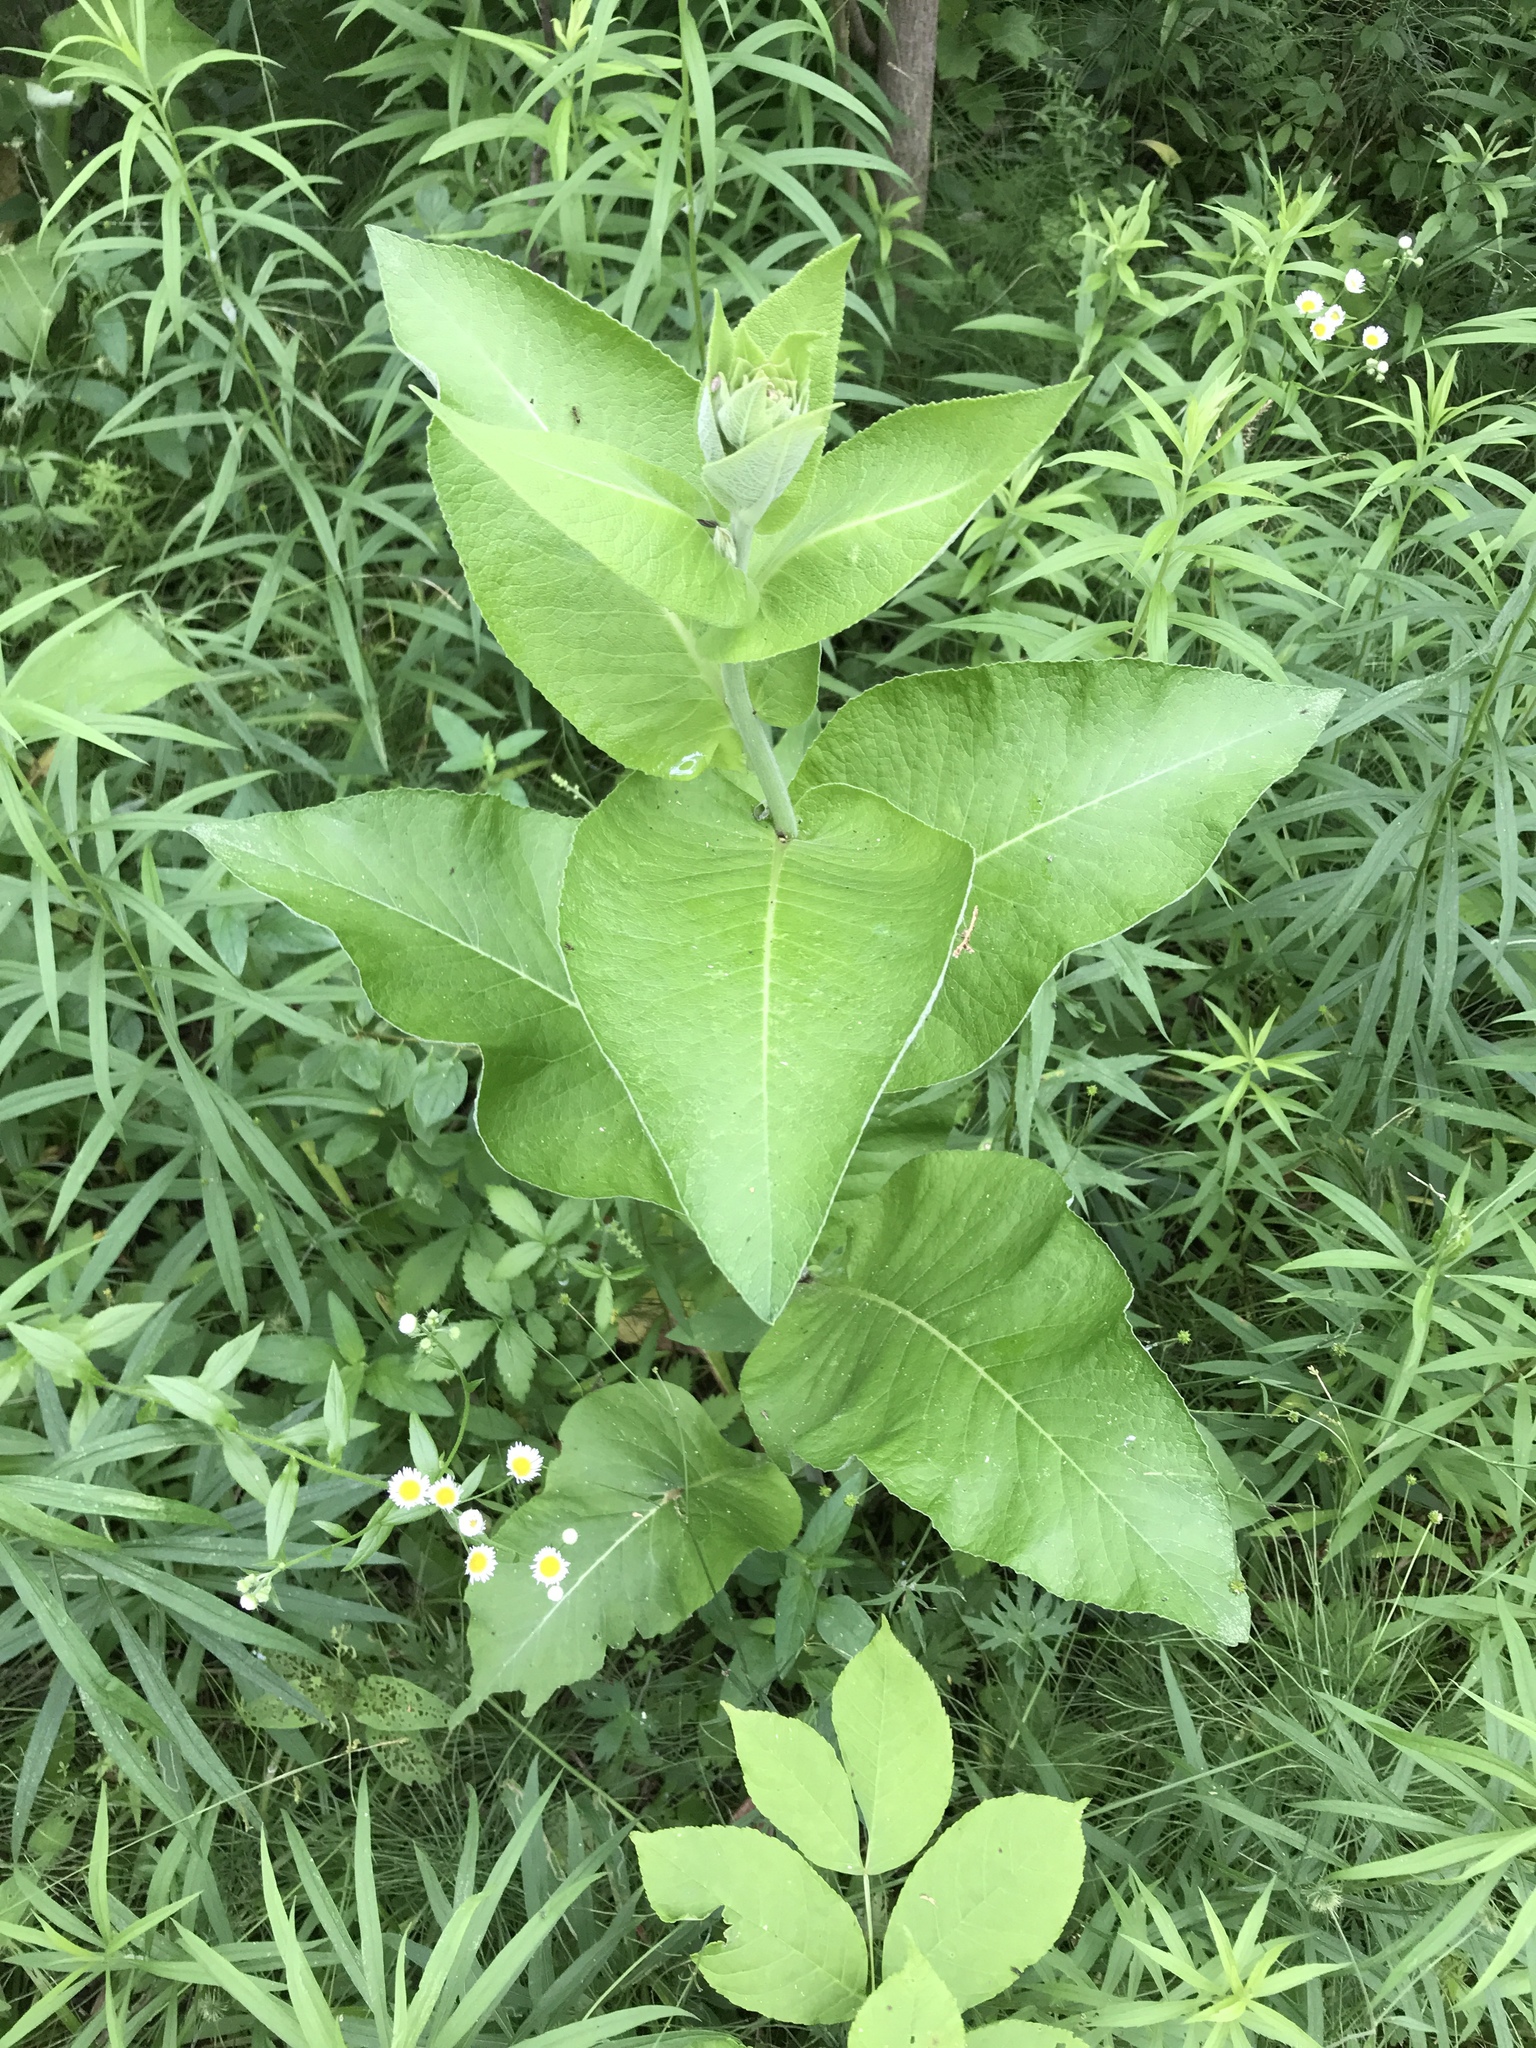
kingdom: Plantae
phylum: Tracheophyta
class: Magnoliopsida
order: Asterales
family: Asteraceae
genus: Inula
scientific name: Inula helenium
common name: Elecampane
